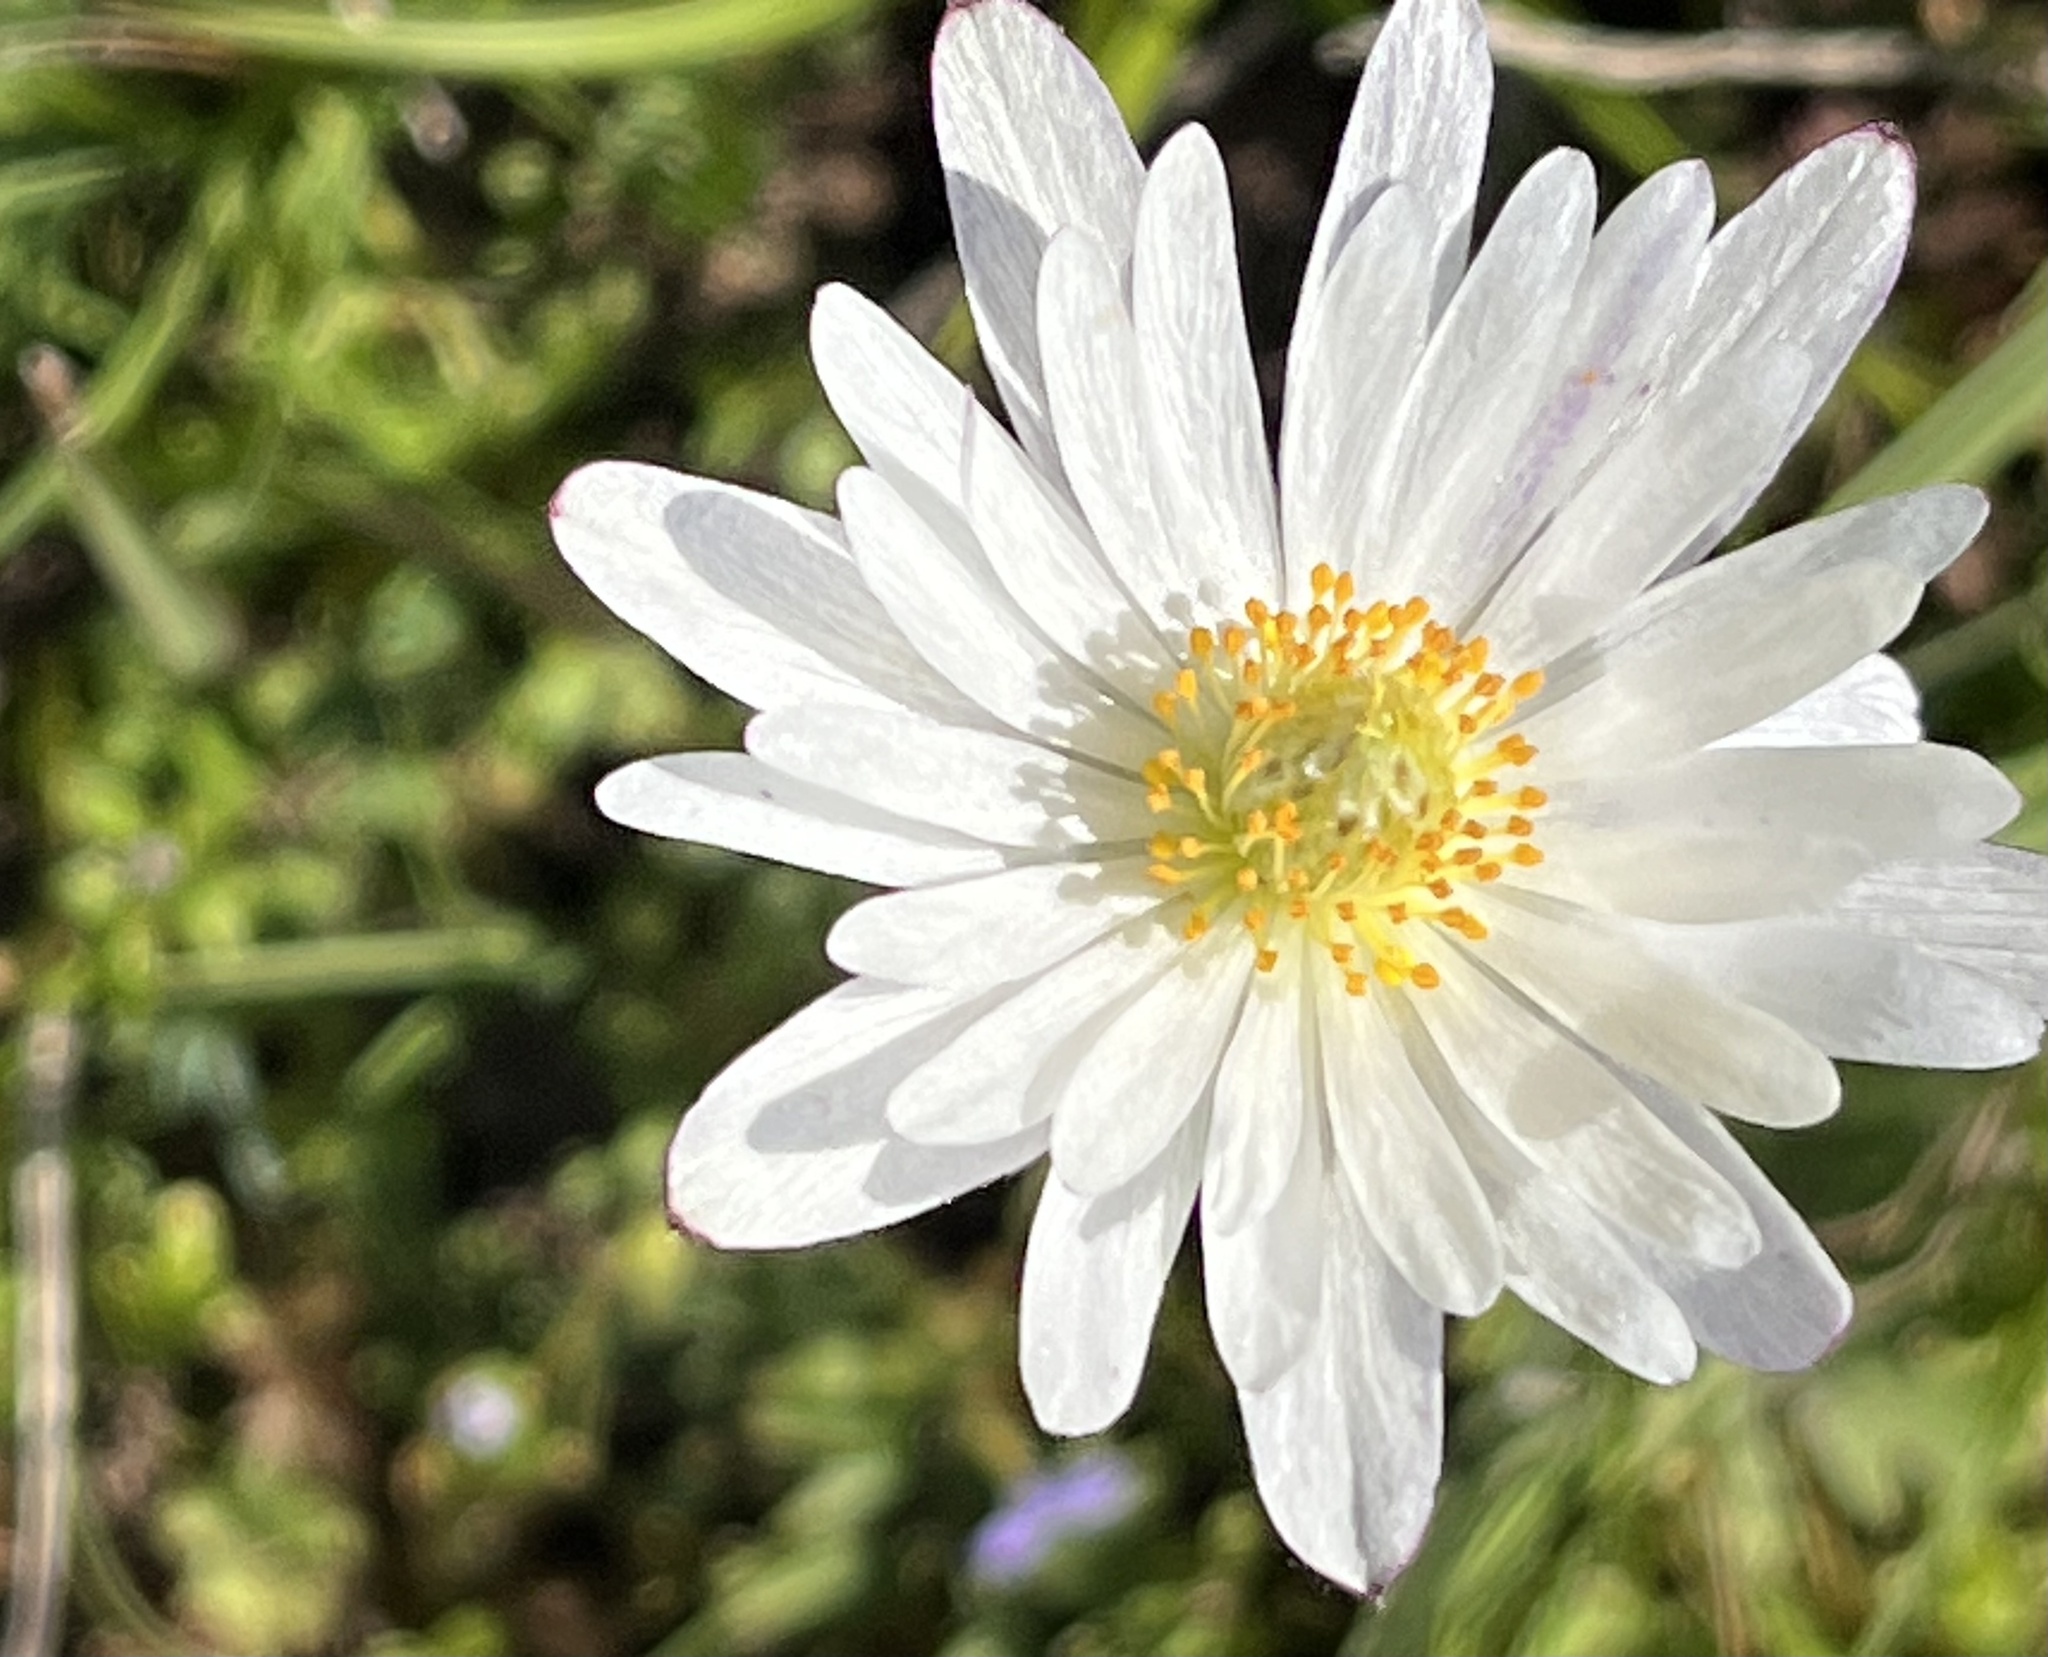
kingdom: Plantae
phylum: Tracheophyta
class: Magnoliopsida
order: Ranunculales
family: Ranunculaceae
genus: Anemone
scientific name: Anemone caroliniana
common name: Carolina anemone
